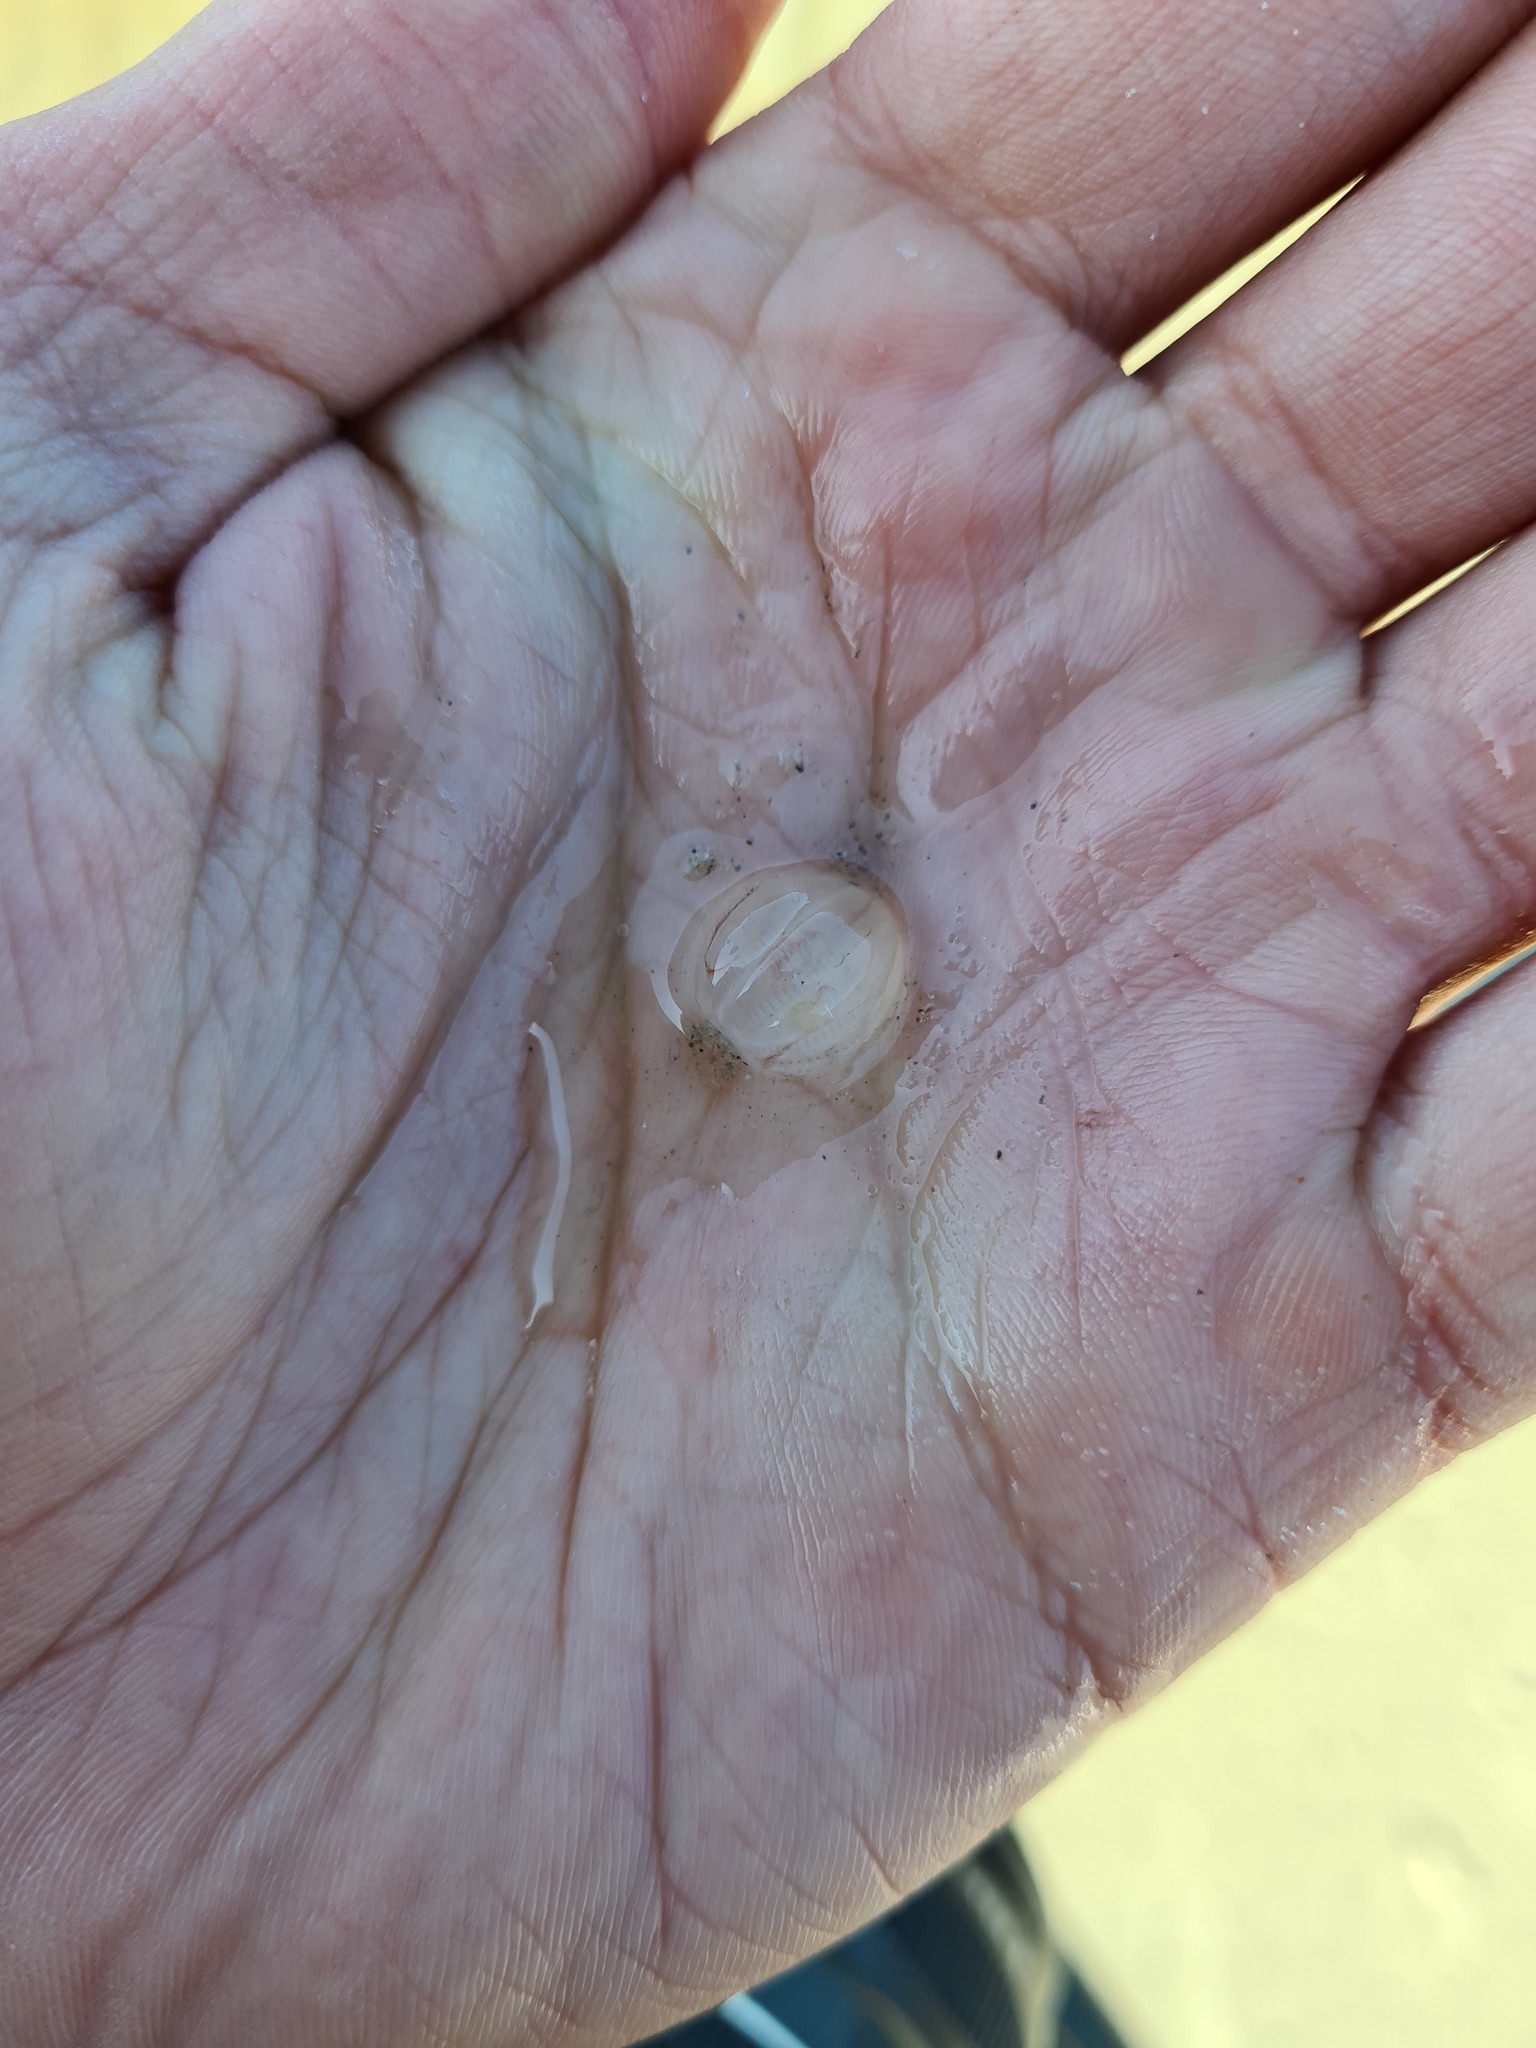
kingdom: Animalia
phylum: Ctenophora
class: Tentaculata
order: Cydippida
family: Pleurobrachiidae
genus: Pleurobrachia
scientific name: Pleurobrachia pileus
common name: Sea gooseberry
